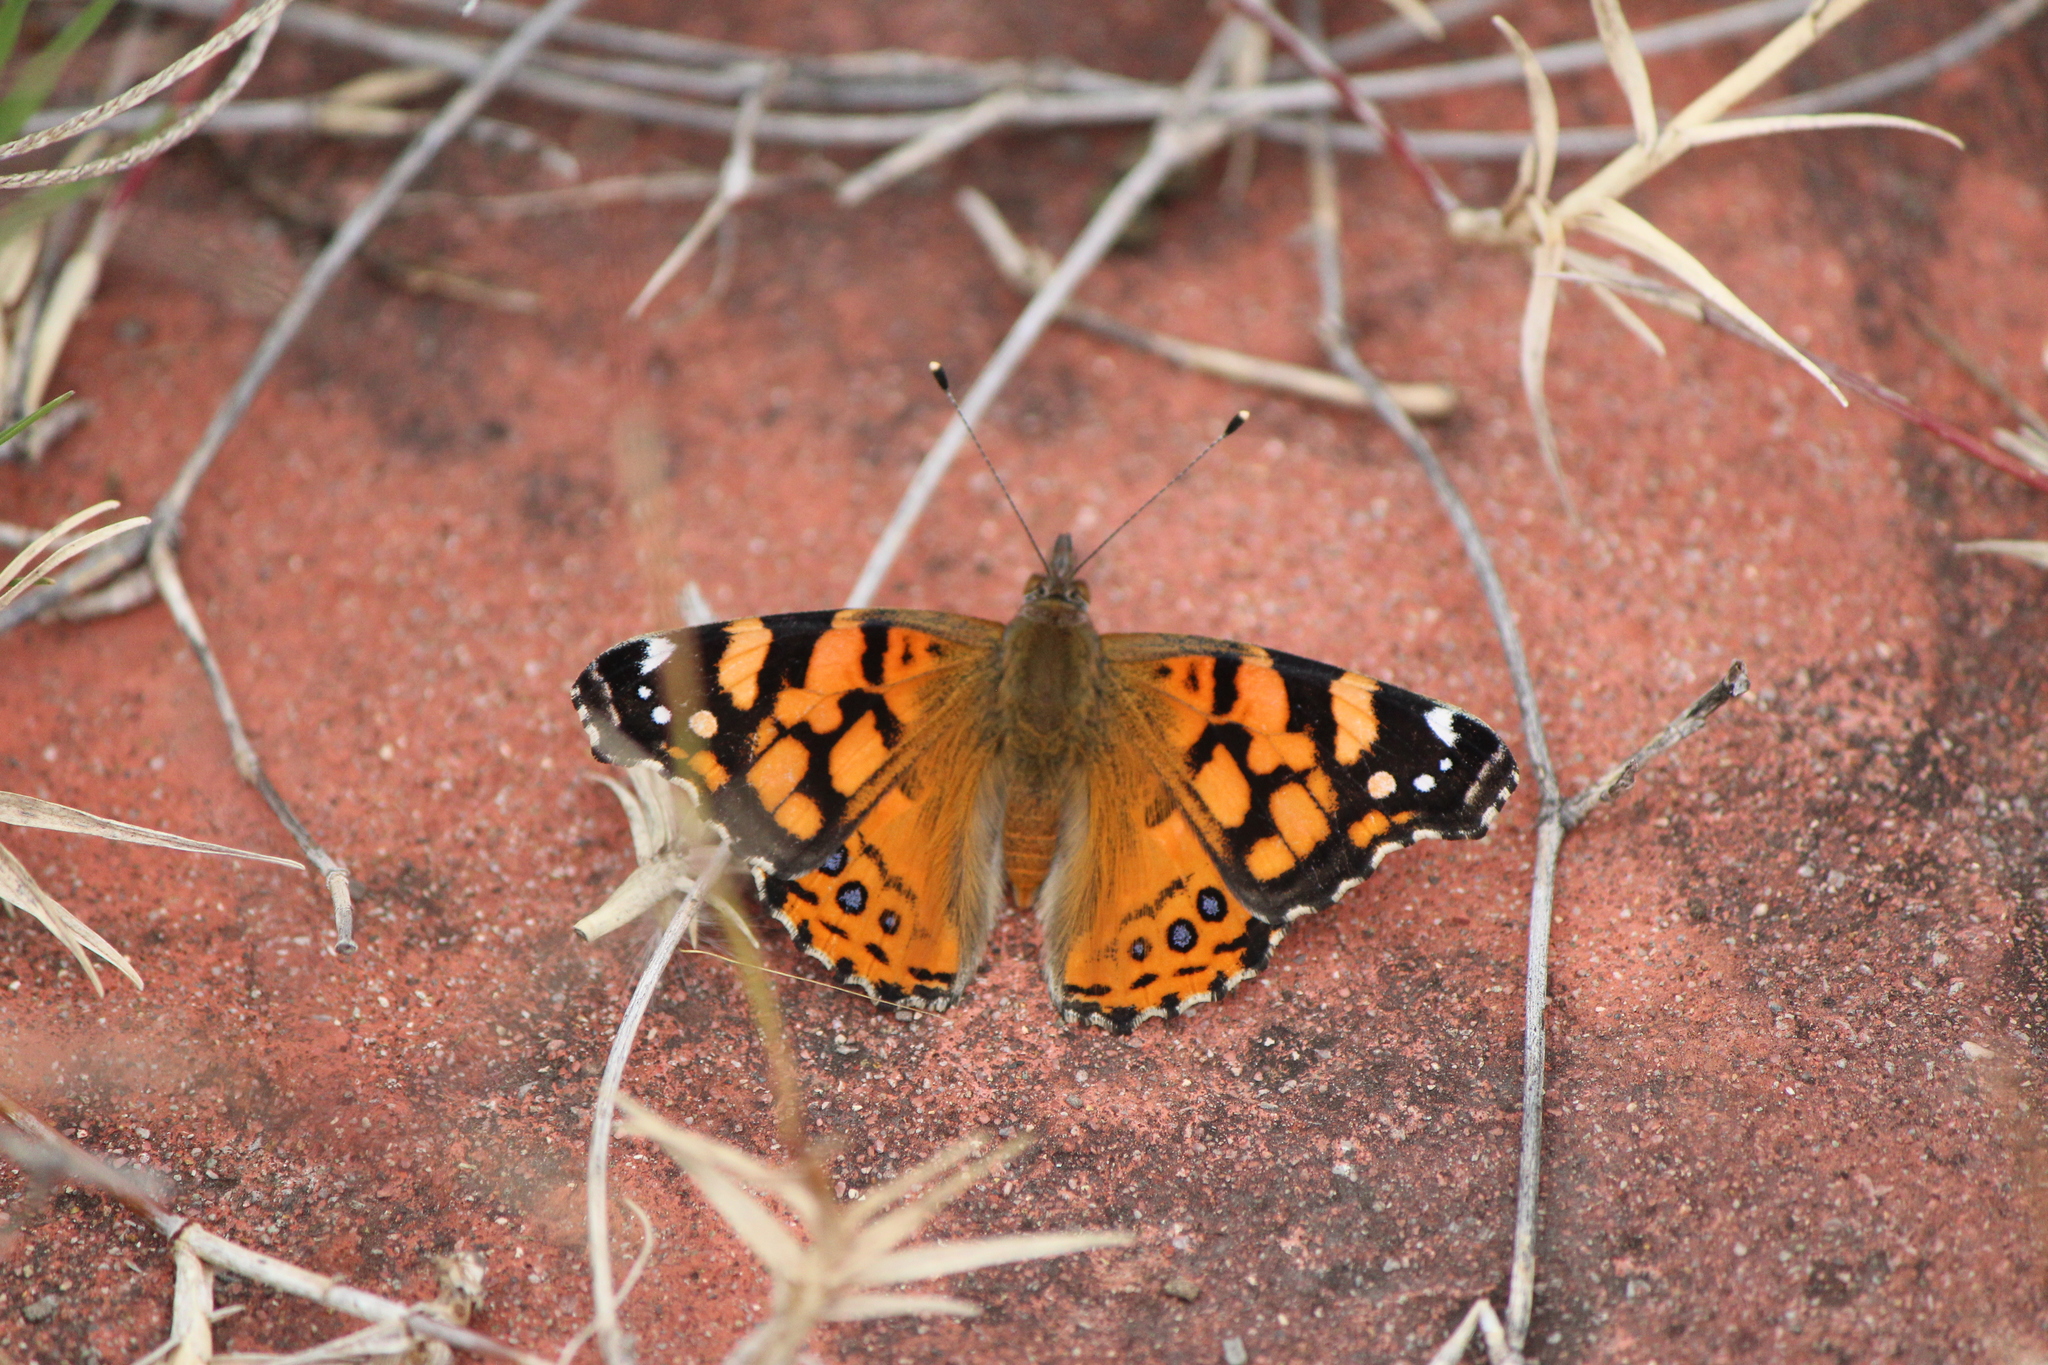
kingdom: Animalia
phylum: Arthropoda
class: Insecta
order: Lepidoptera
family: Nymphalidae
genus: Vanessa
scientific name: Vanessa annabella
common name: West coast lady
